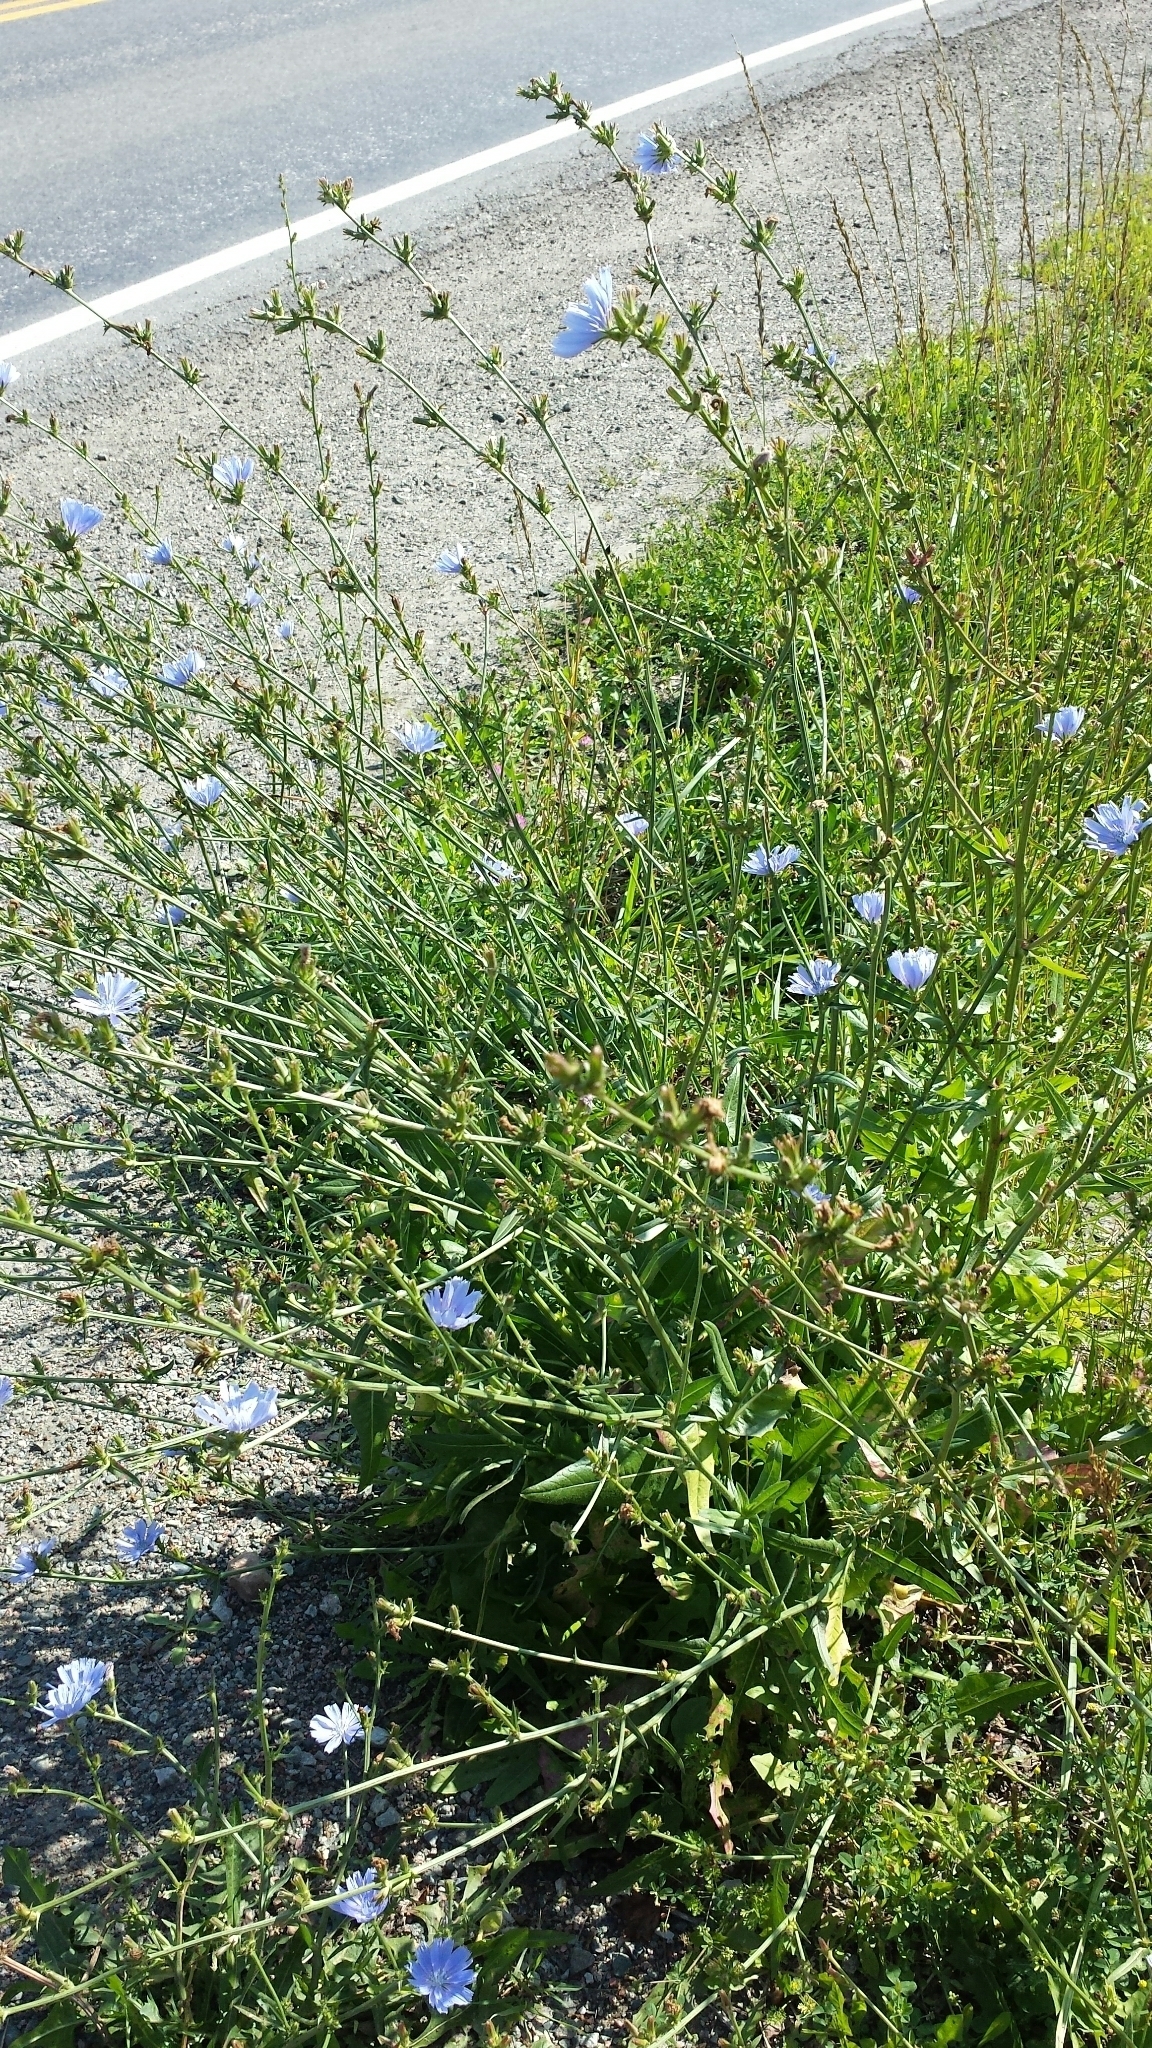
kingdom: Plantae
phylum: Tracheophyta
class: Magnoliopsida
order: Asterales
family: Asteraceae
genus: Cichorium
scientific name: Cichorium intybus
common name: Chicory
